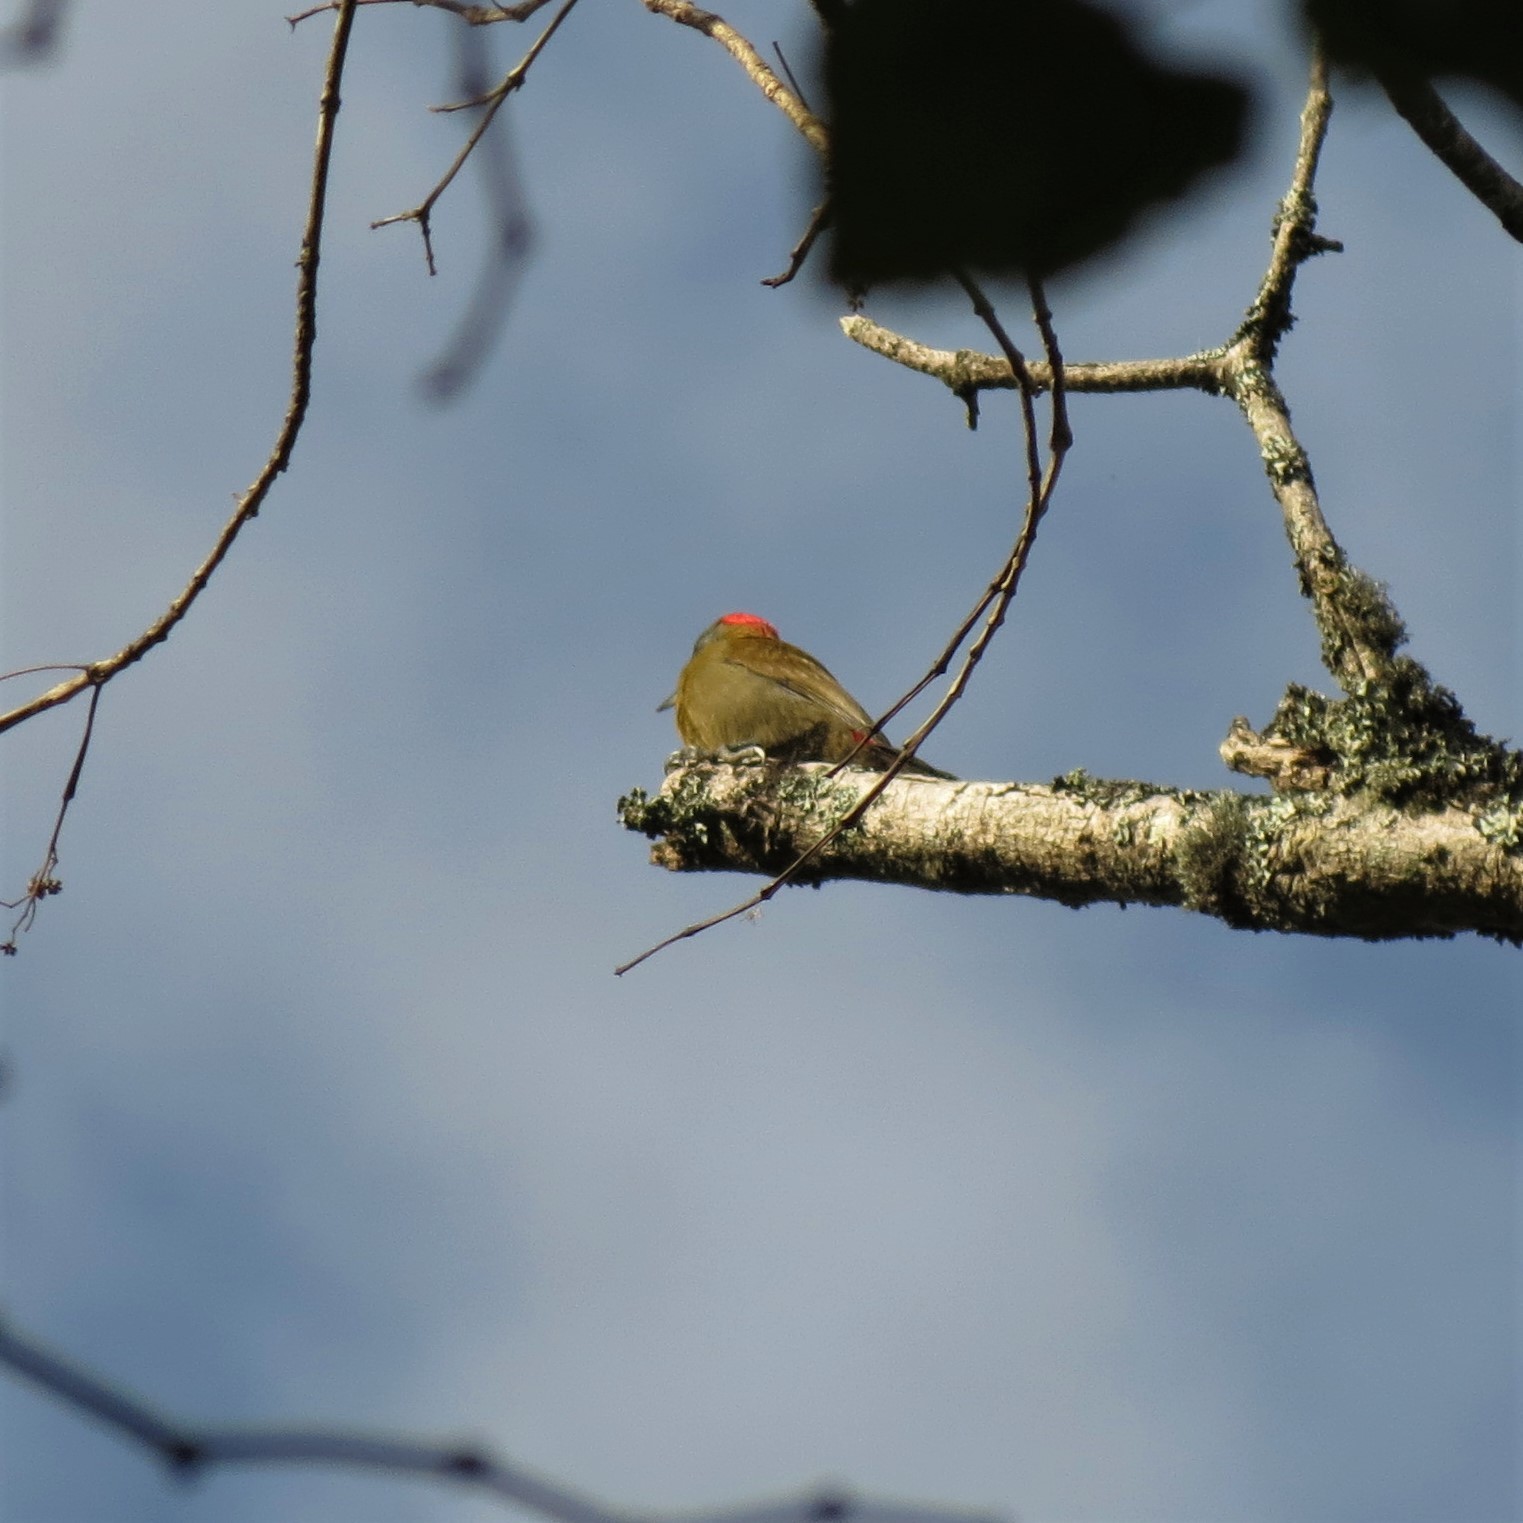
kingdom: Animalia
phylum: Chordata
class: Aves
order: Piciformes
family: Picidae
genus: Dendropicos
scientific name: Dendropicos griseocephalus
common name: Olive woodpecker
